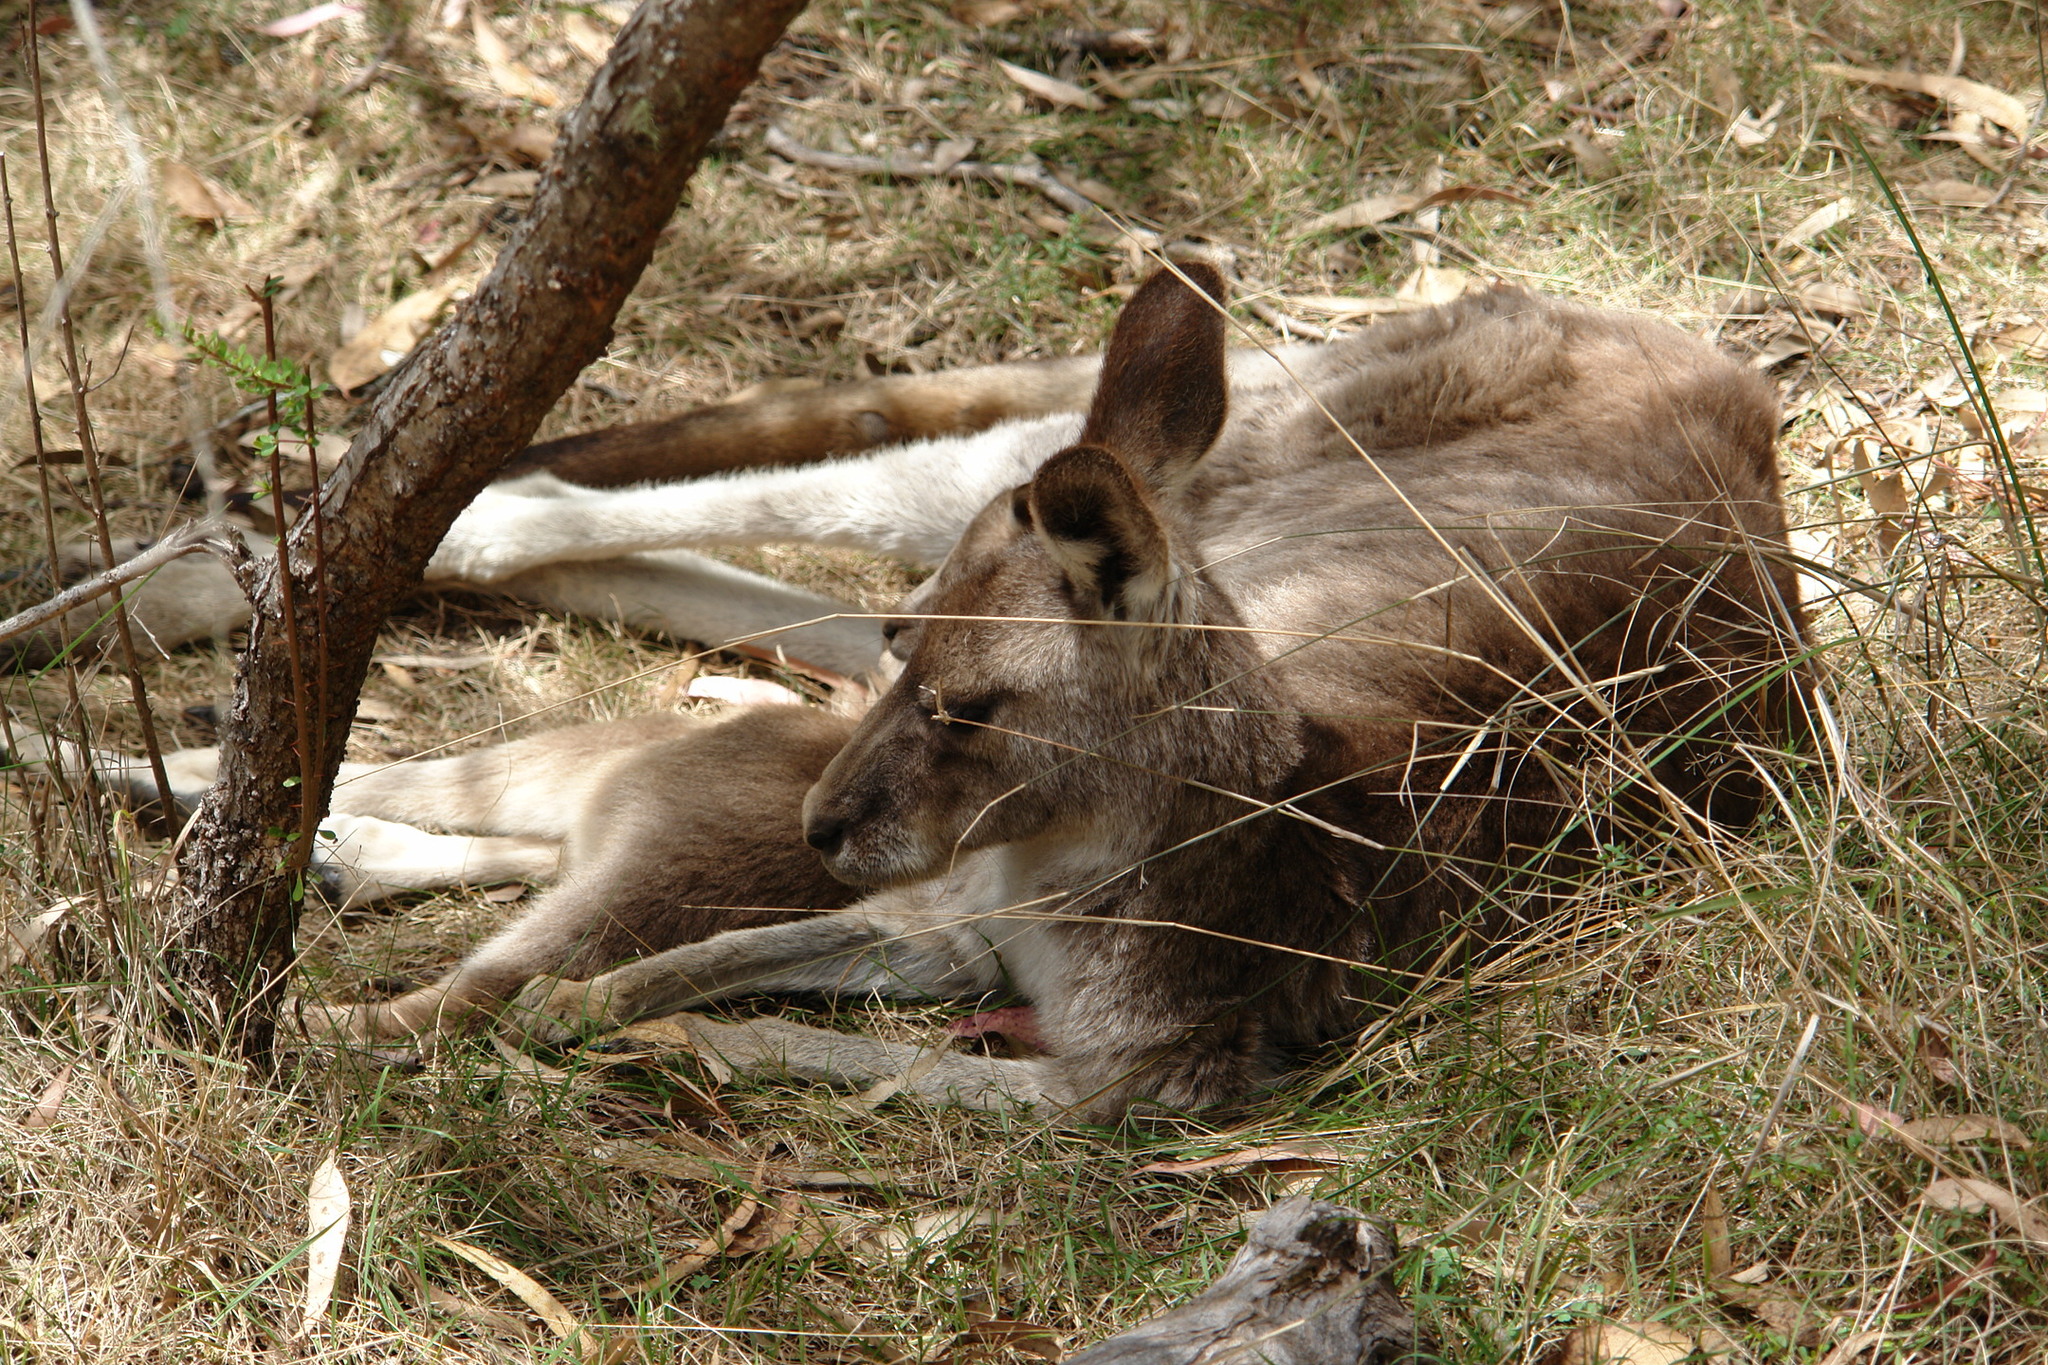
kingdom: Animalia
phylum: Chordata
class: Mammalia
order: Diprotodontia
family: Macropodidae
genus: Macropus
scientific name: Macropus giganteus
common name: Eastern grey kangaroo
